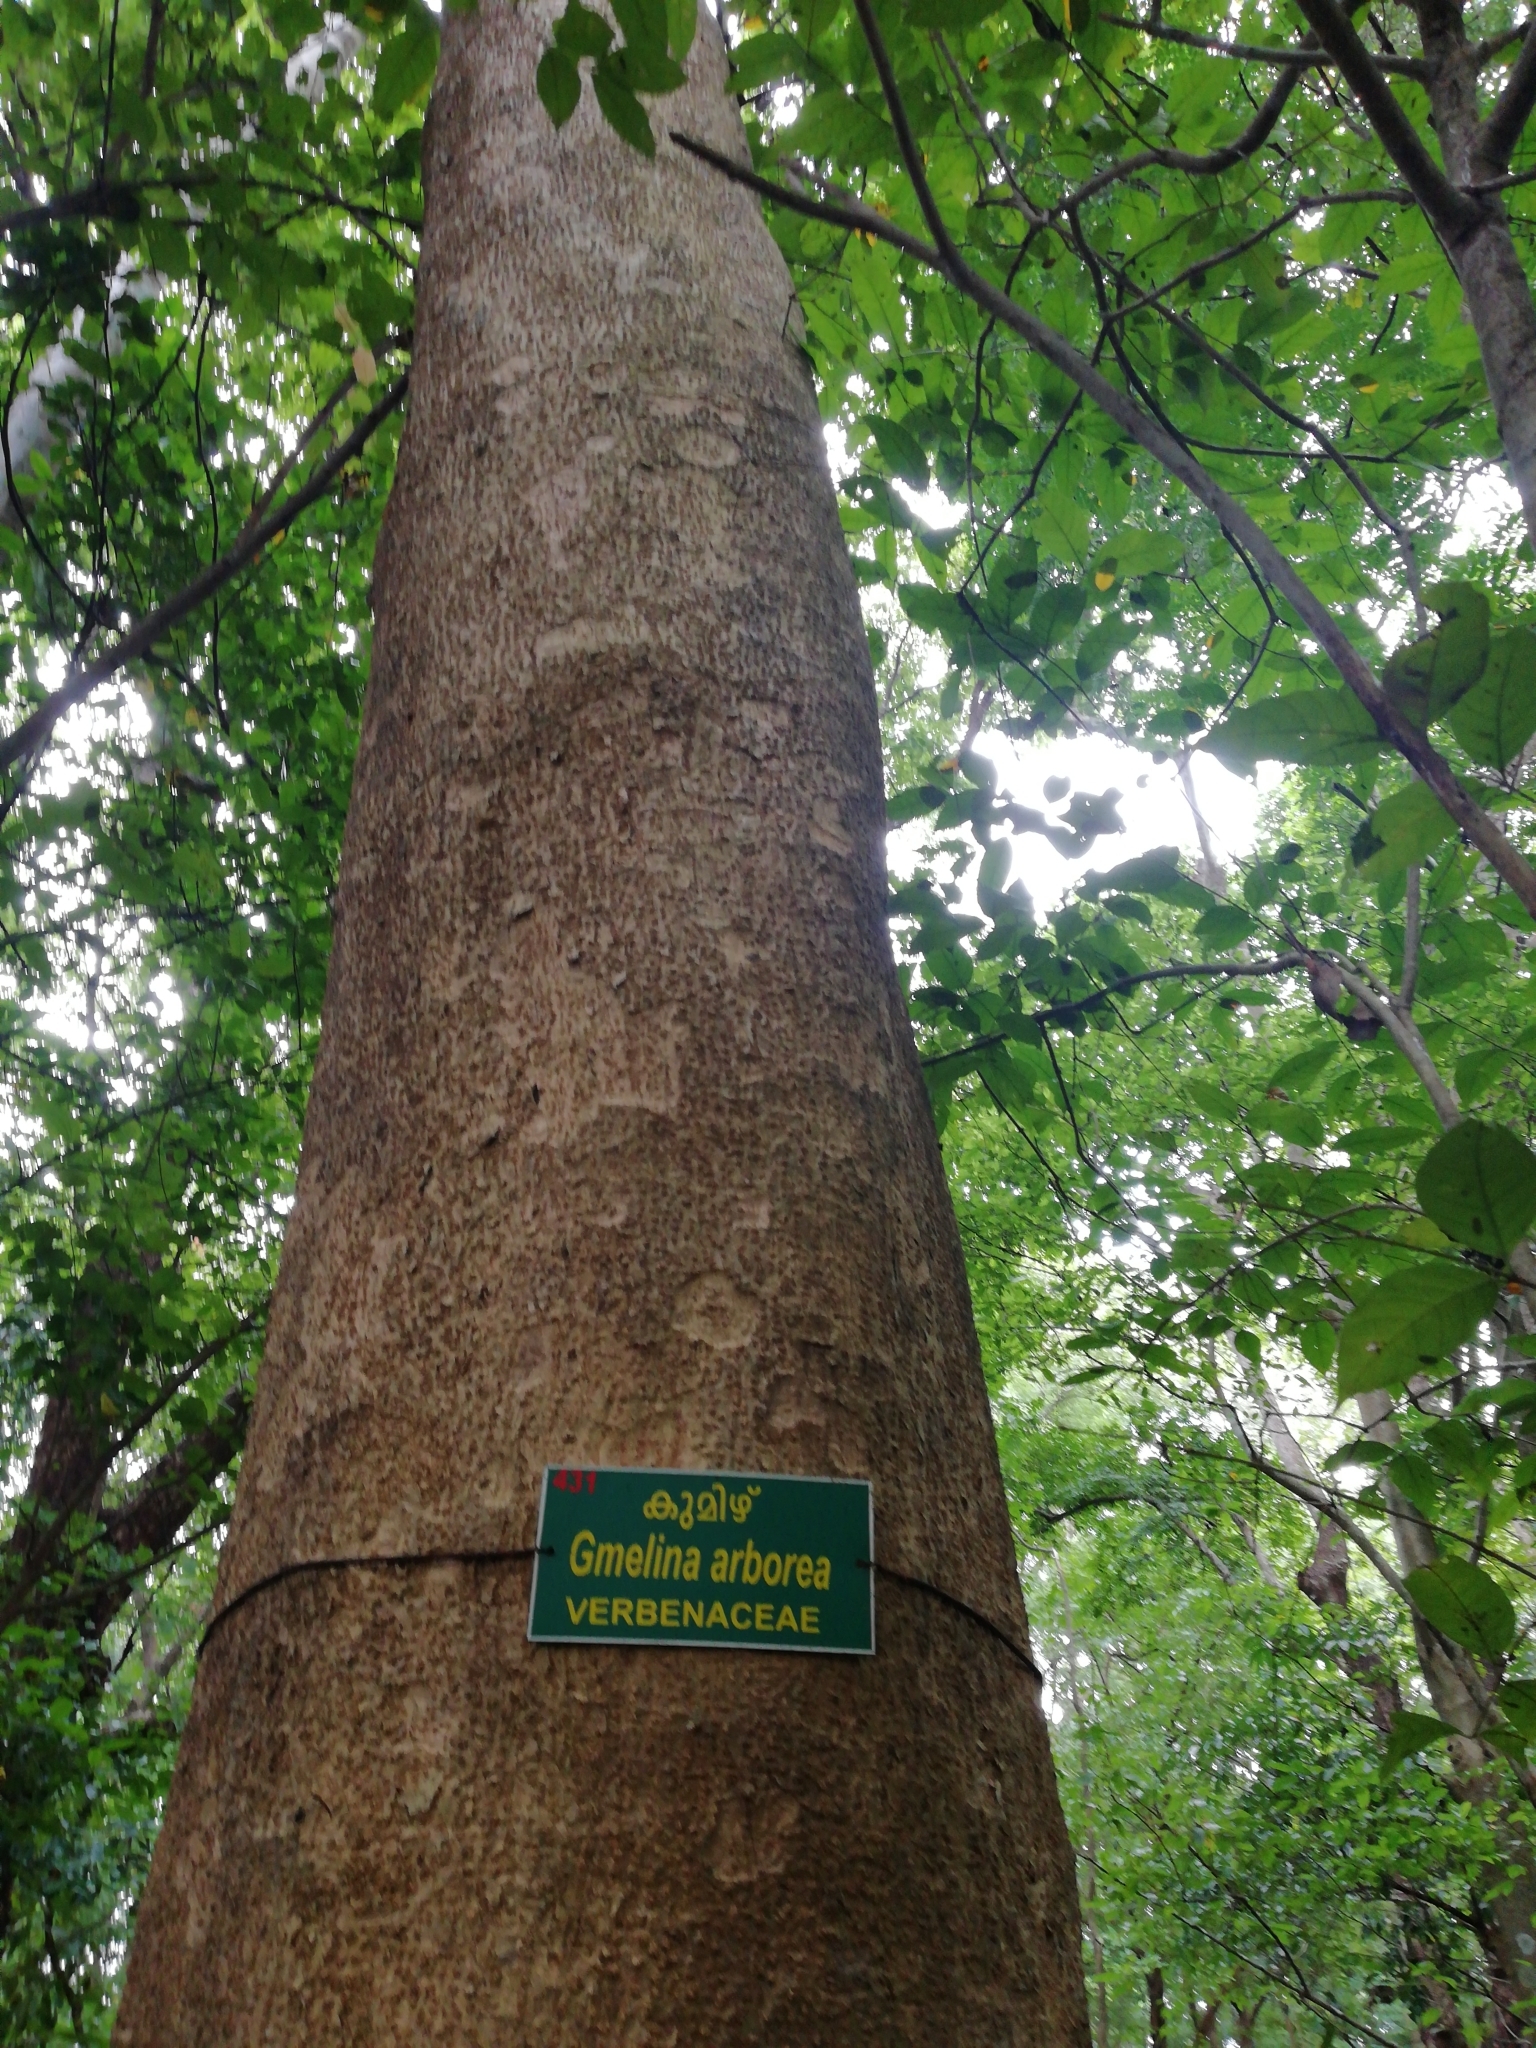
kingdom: Plantae
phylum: Tracheophyta
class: Magnoliopsida
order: Lamiales
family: Lamiaceae
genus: Gmelina
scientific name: Gmelina arborea
